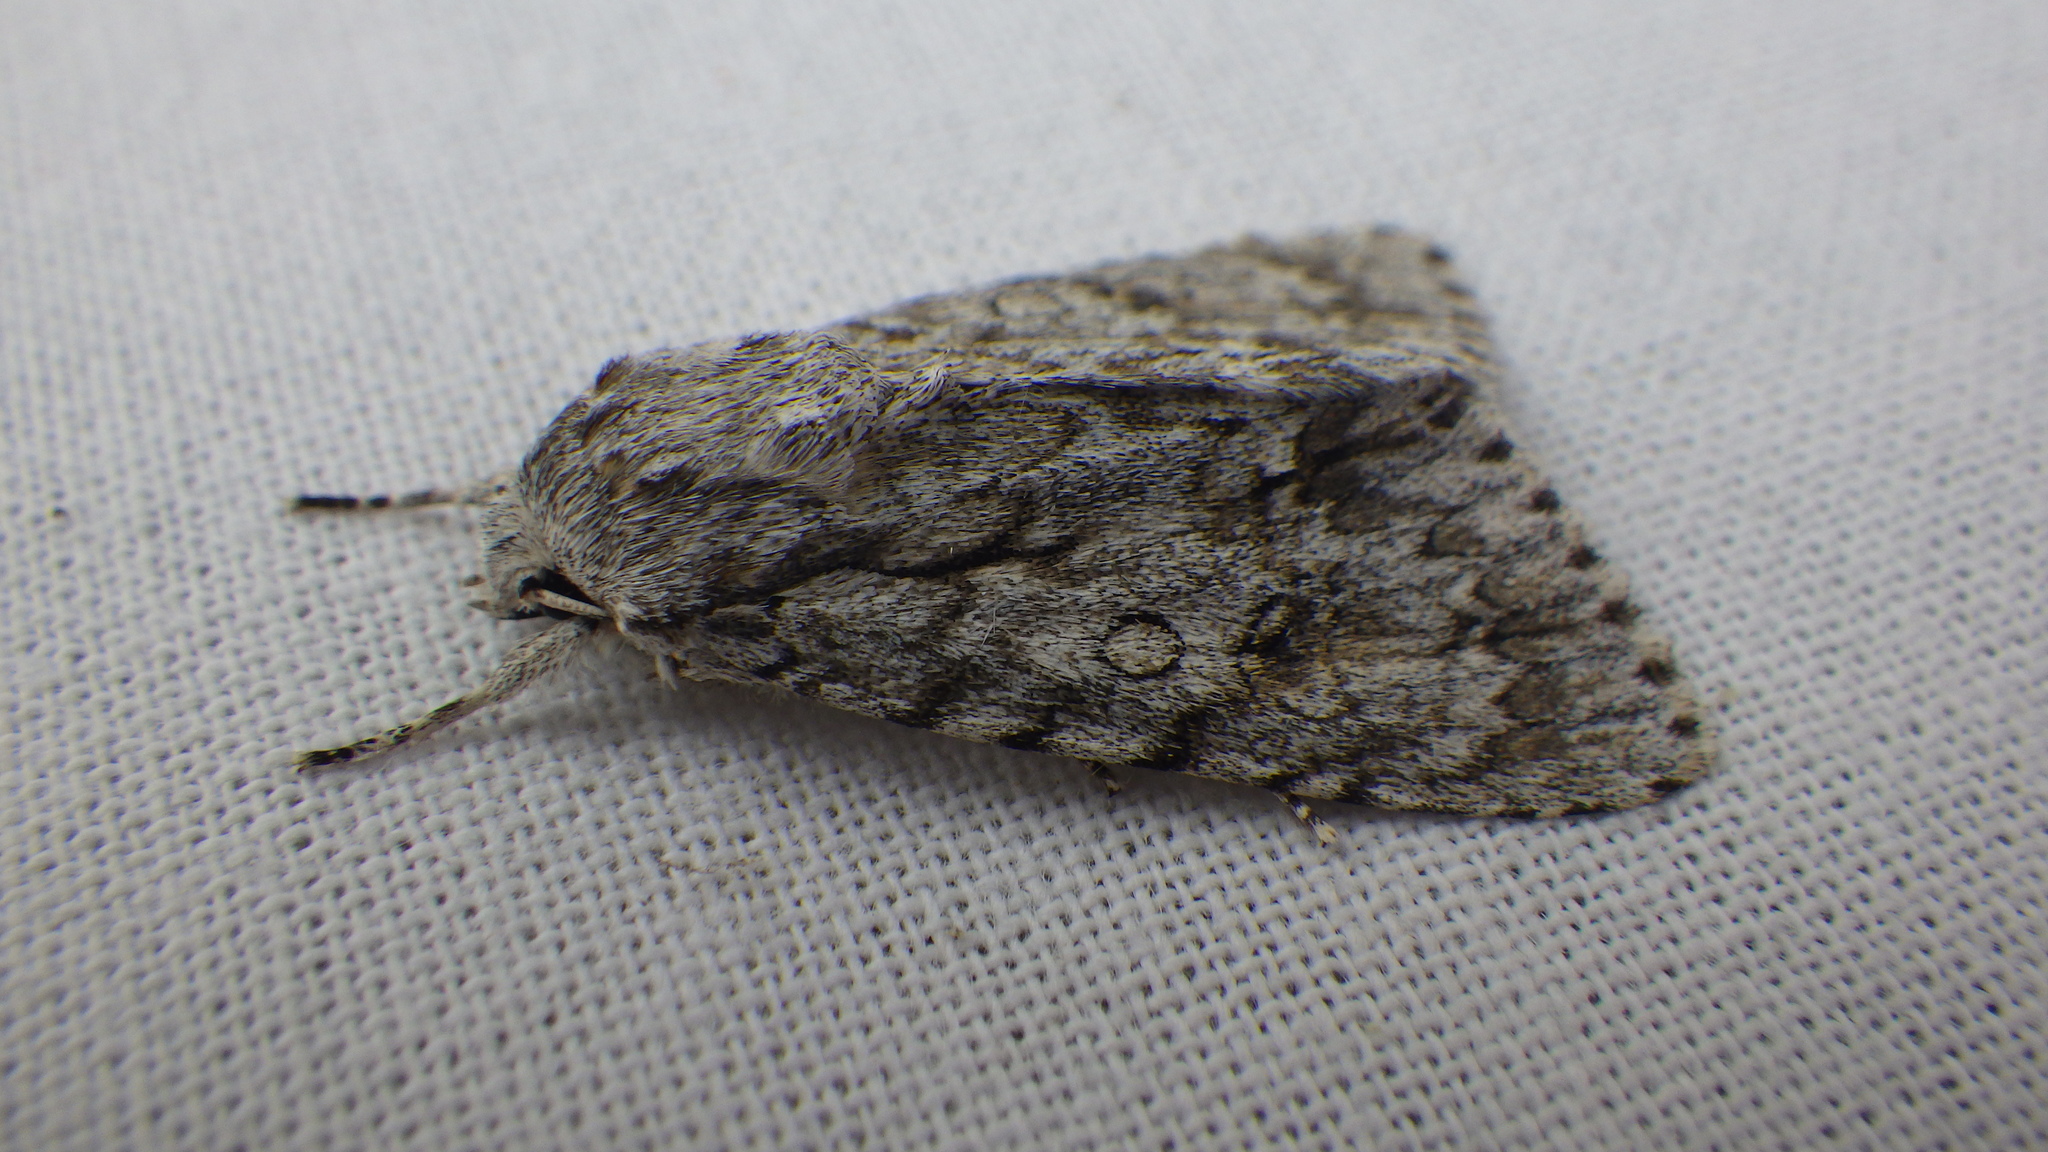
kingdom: Animalia
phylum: Arthropoda
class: Insecta
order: Lepidoptera
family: Noctuidae
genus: Acronicta
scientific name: Acronicta aceris
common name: Sycamore
